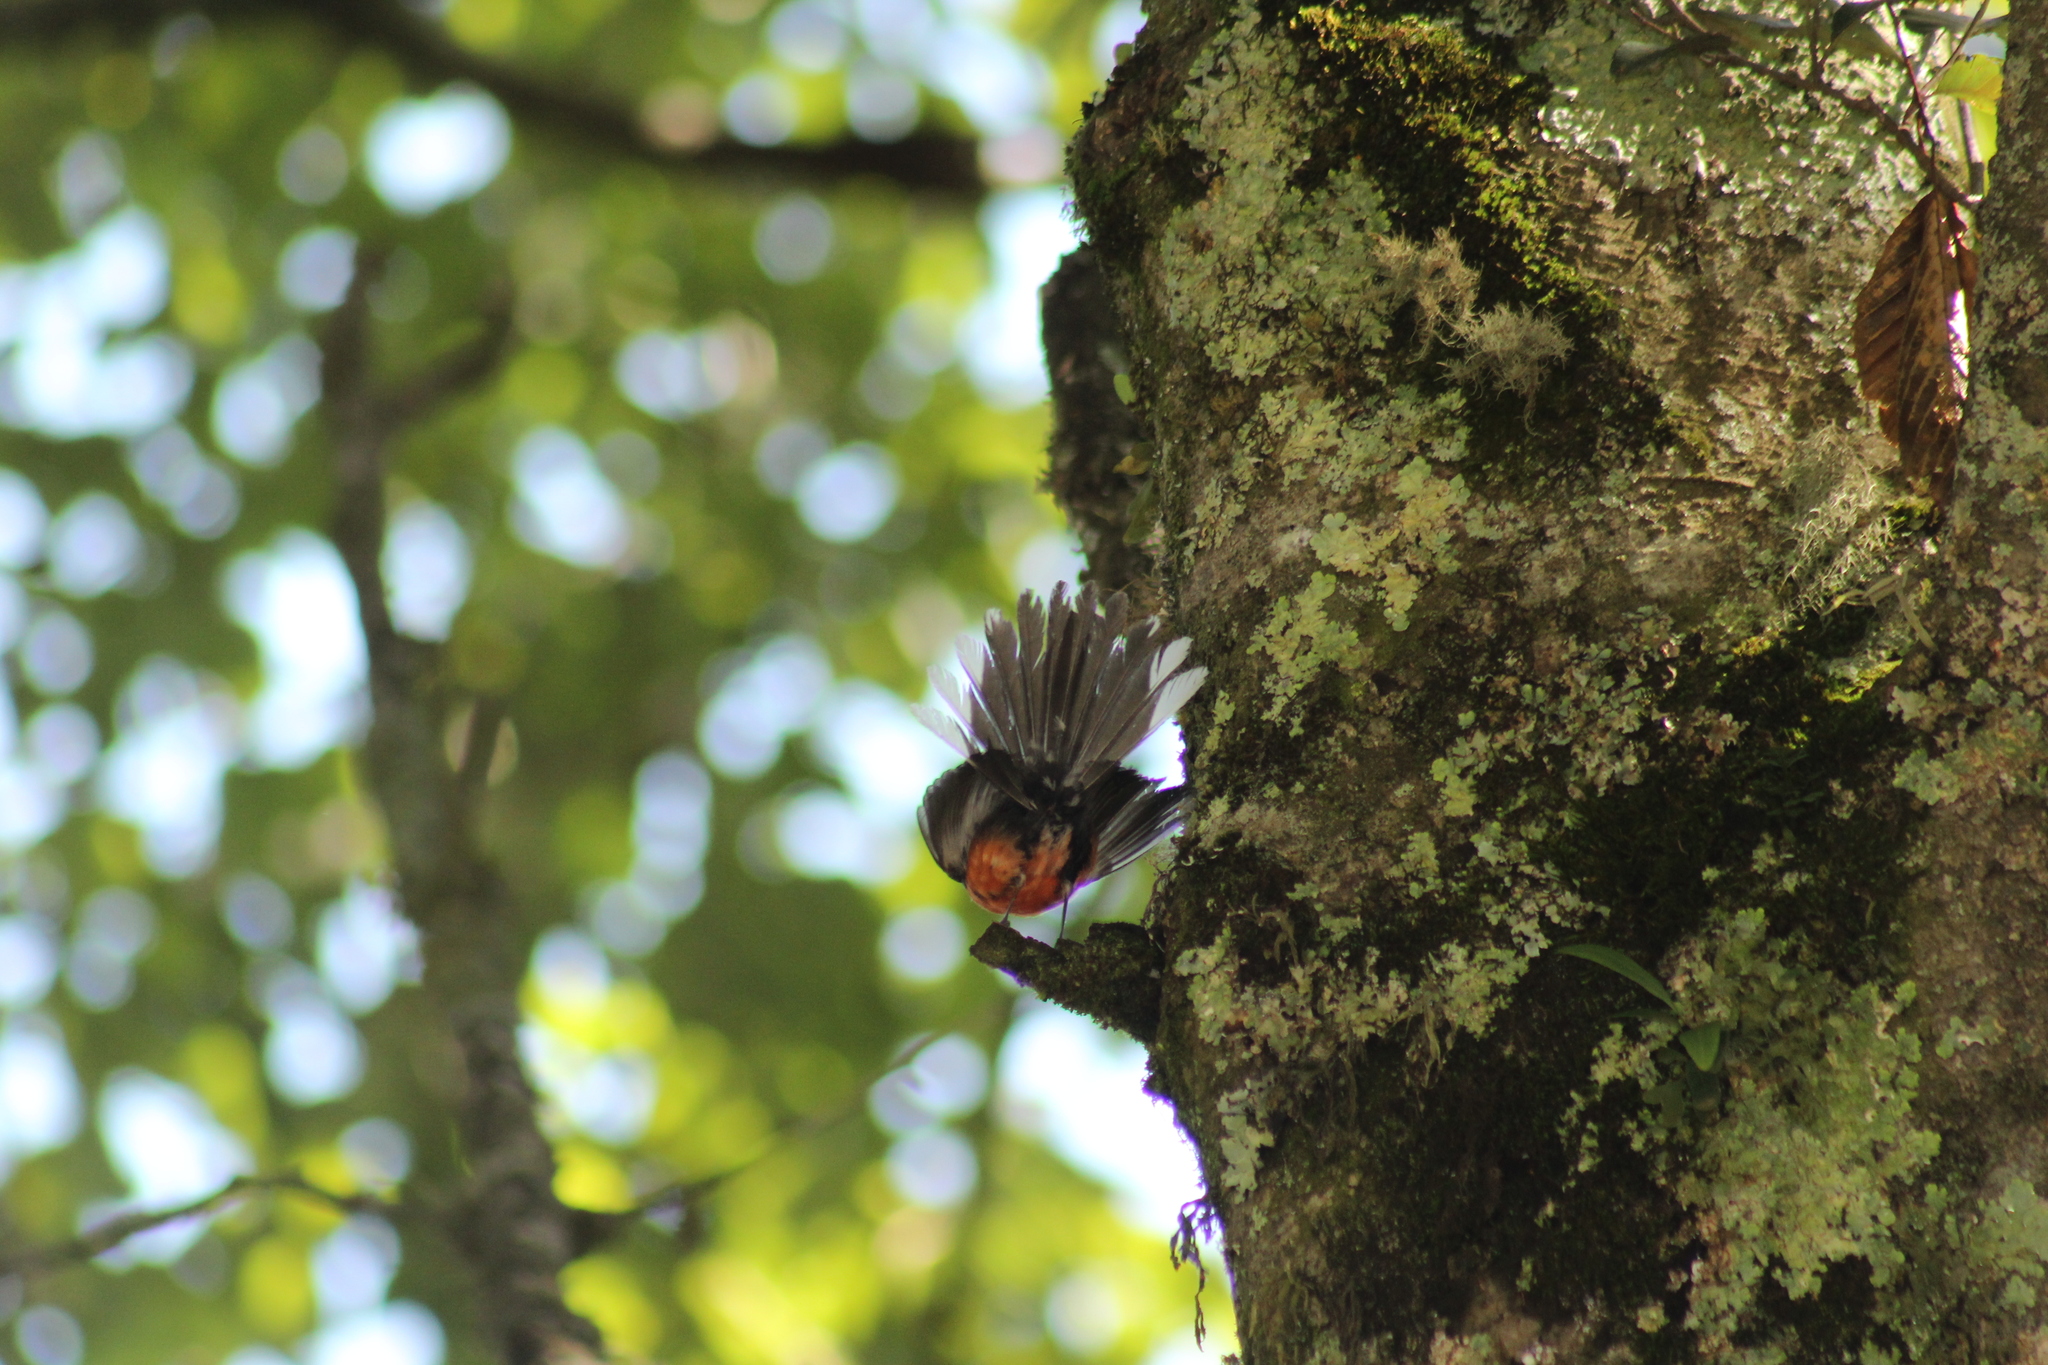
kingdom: Animalia
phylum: Chordata
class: Aves
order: Passeriformes
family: Parulidae
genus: Myioborus
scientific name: Myioborus miniatus
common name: Slate-throated redstart
